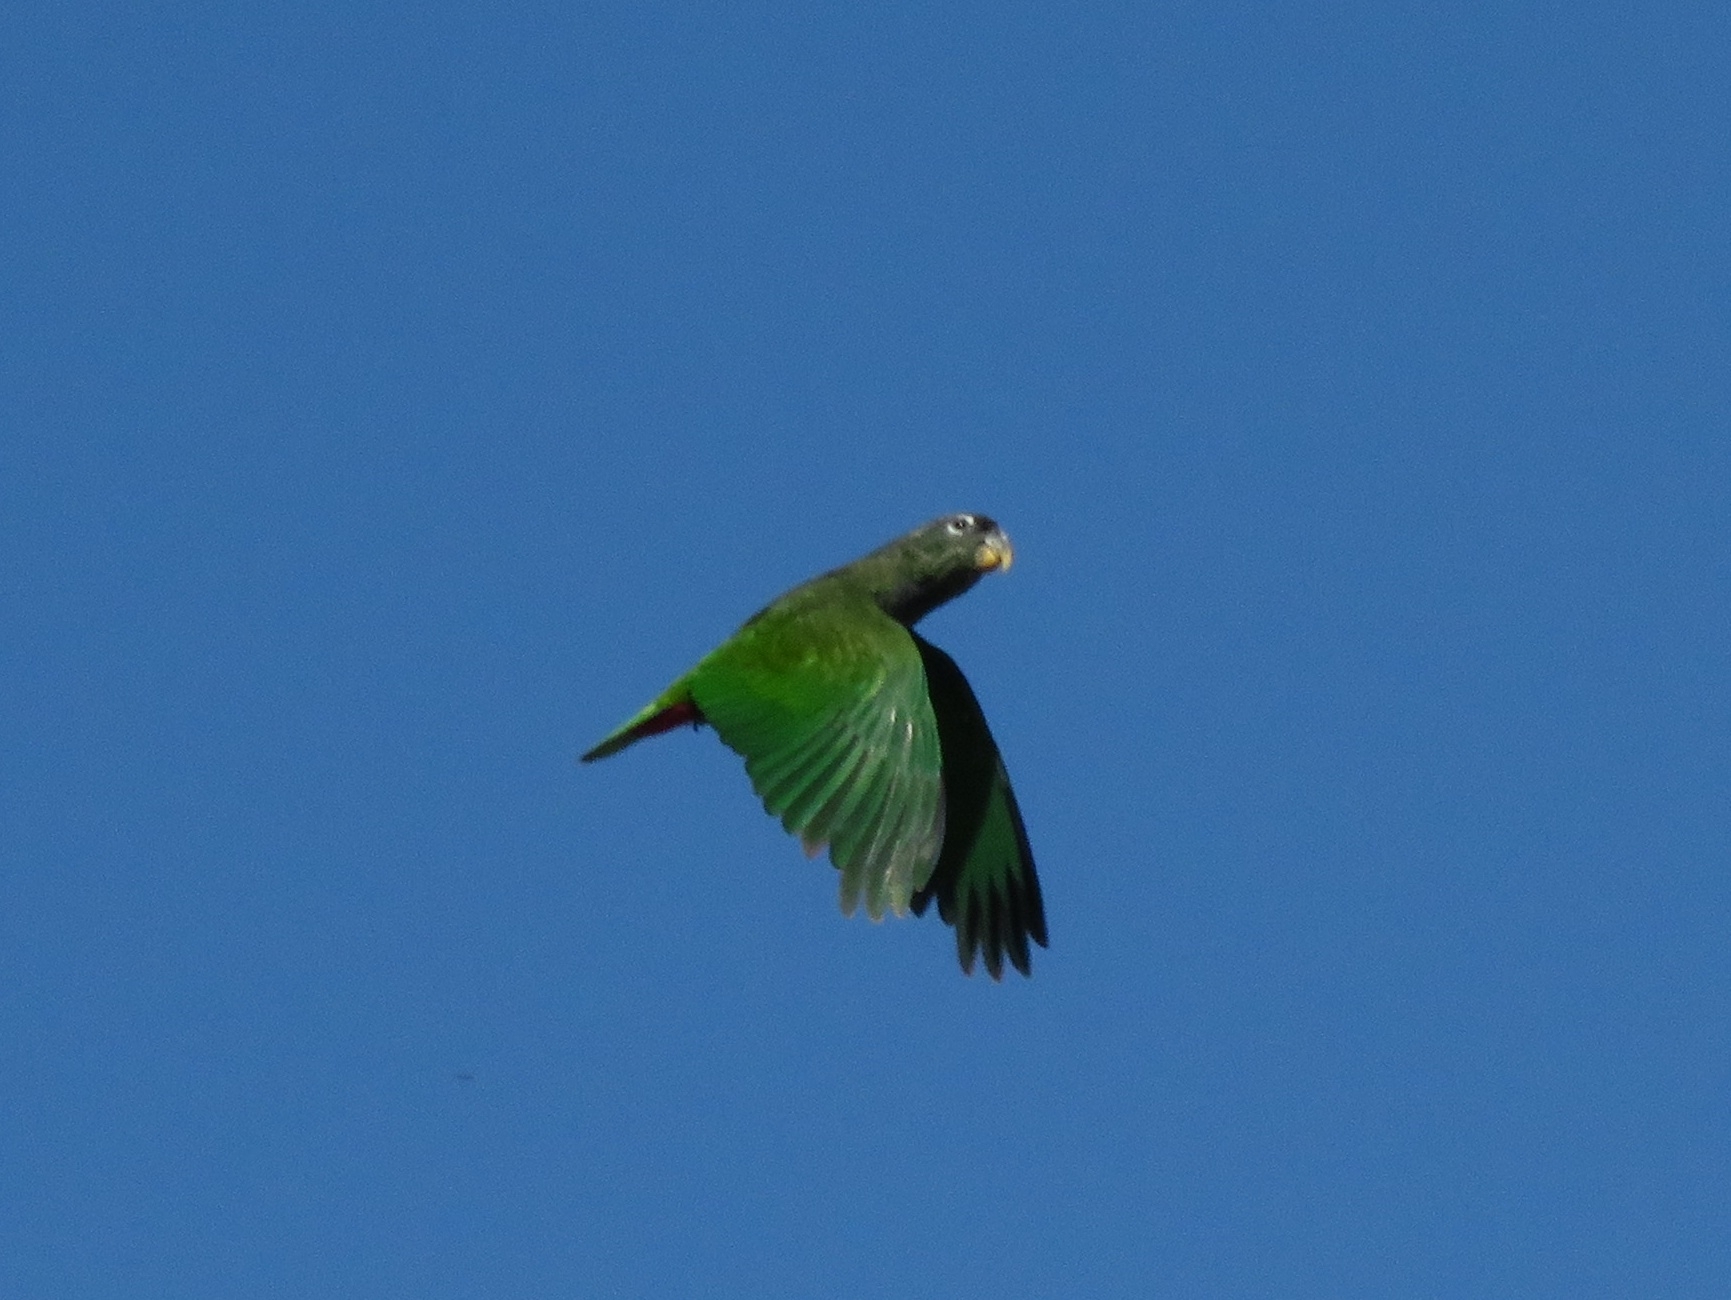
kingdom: Animalia
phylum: Chordata
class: Aves
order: Psittaciformes
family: Psittacidae
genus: Pionus
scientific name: Pionus maximiliani
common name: Scaly-headed parrot
